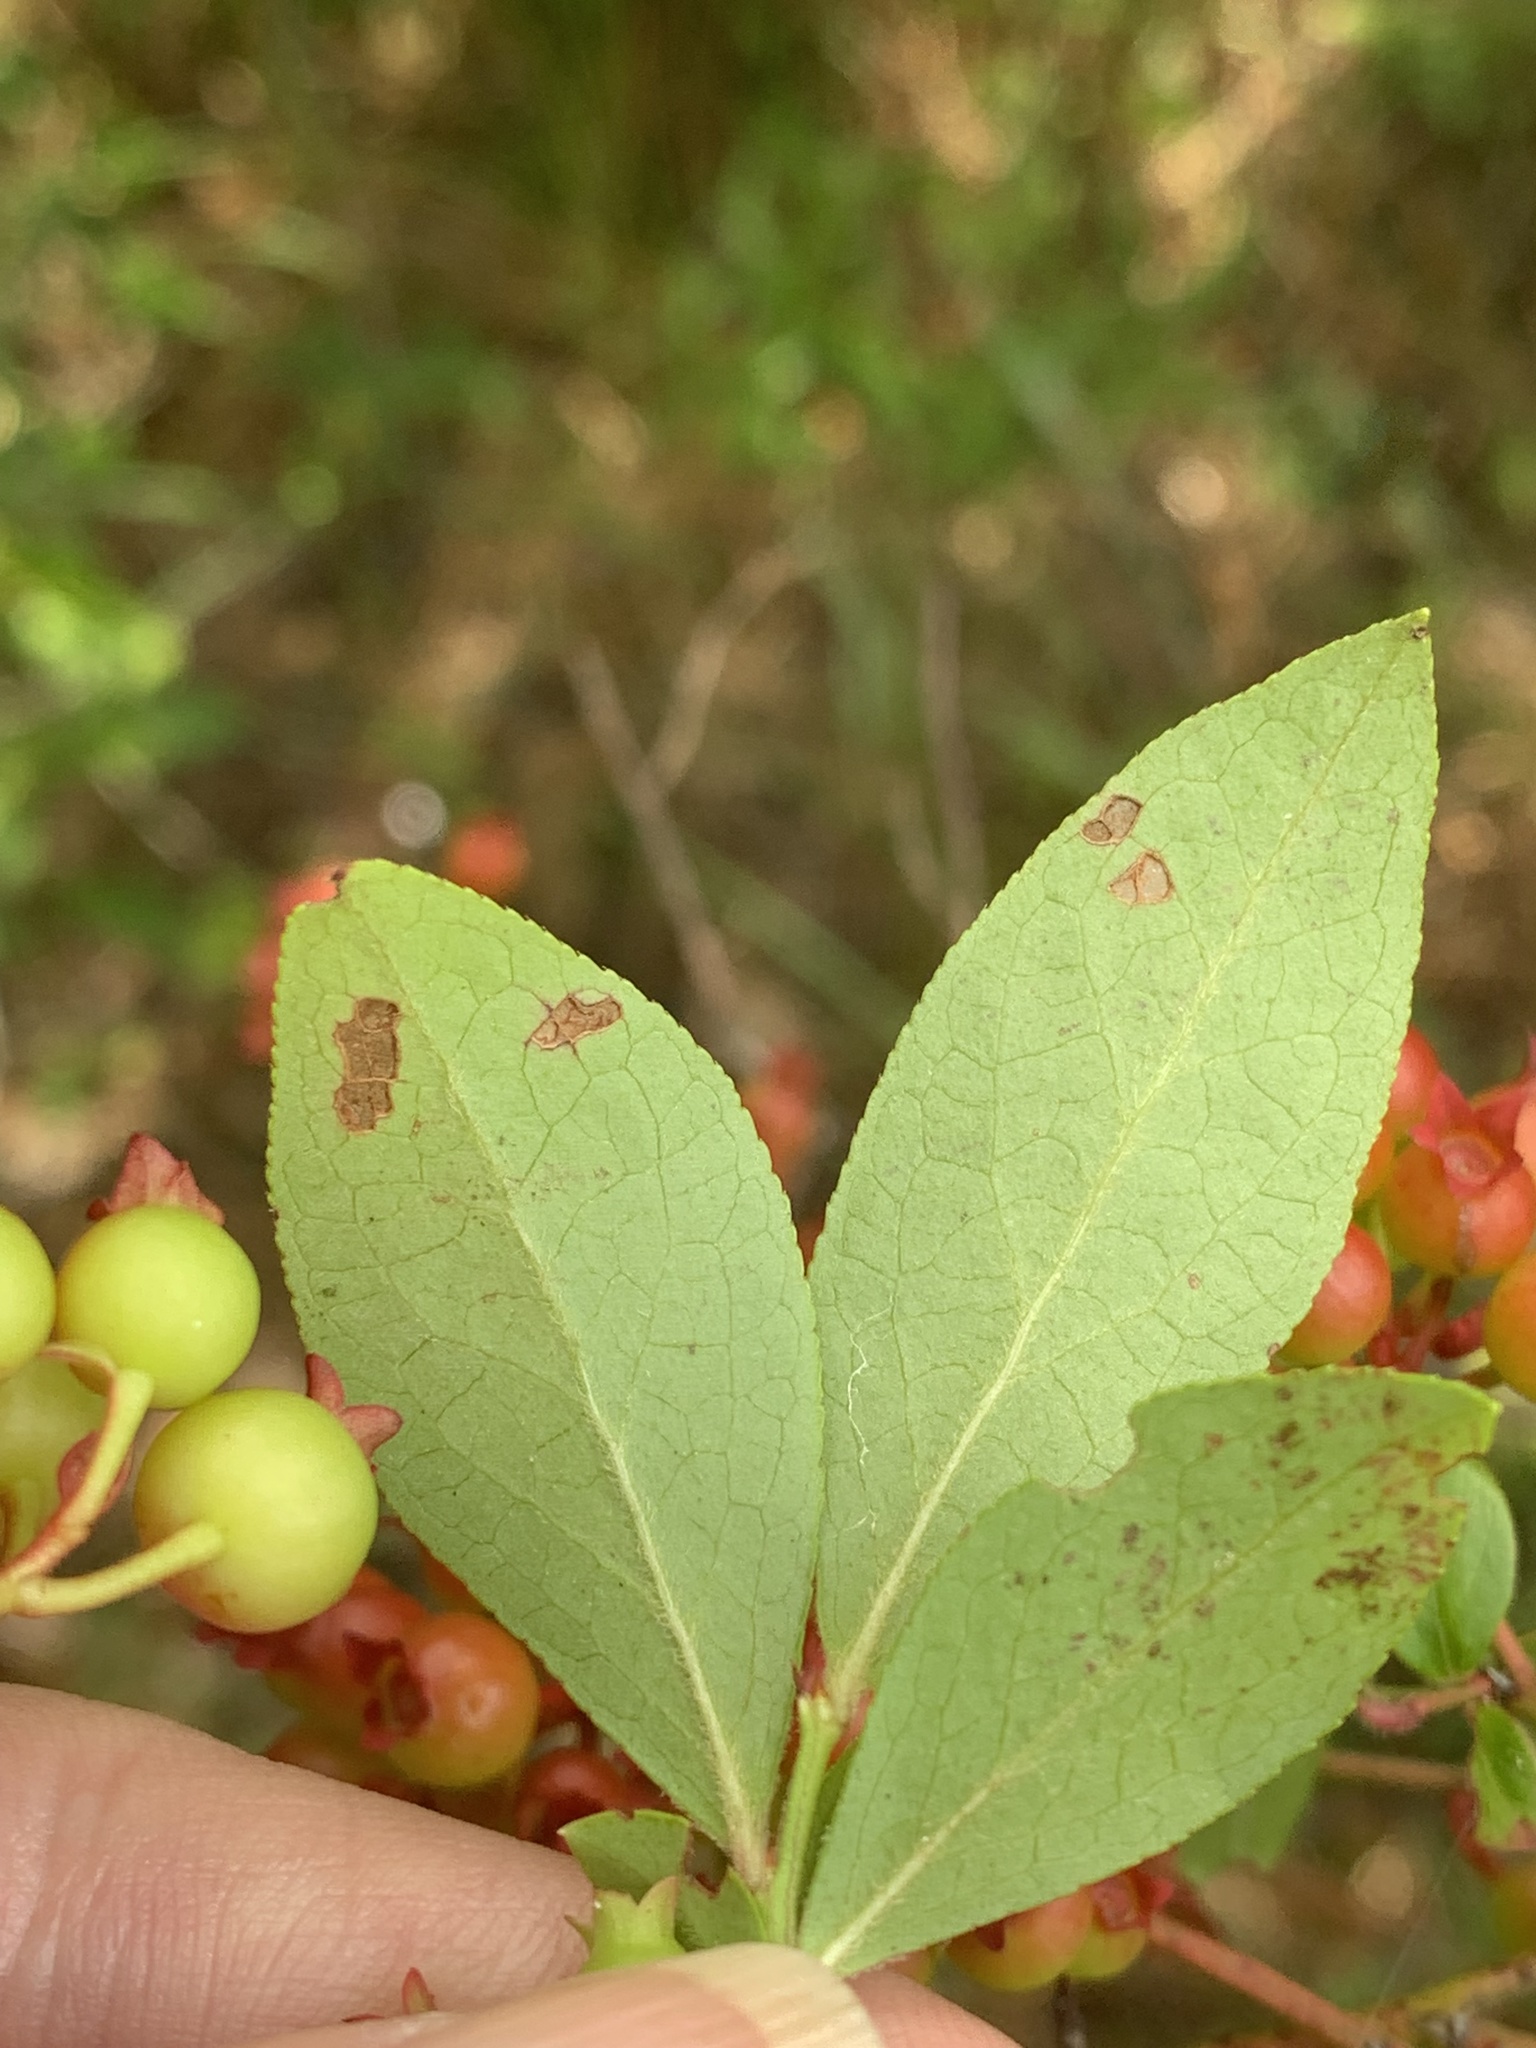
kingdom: Plantae
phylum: Tracheophyta
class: Magnoliopsida
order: Ericales
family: Ericaceae
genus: Vaccinium
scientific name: Vaccinium corymbosum
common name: Blueberry
